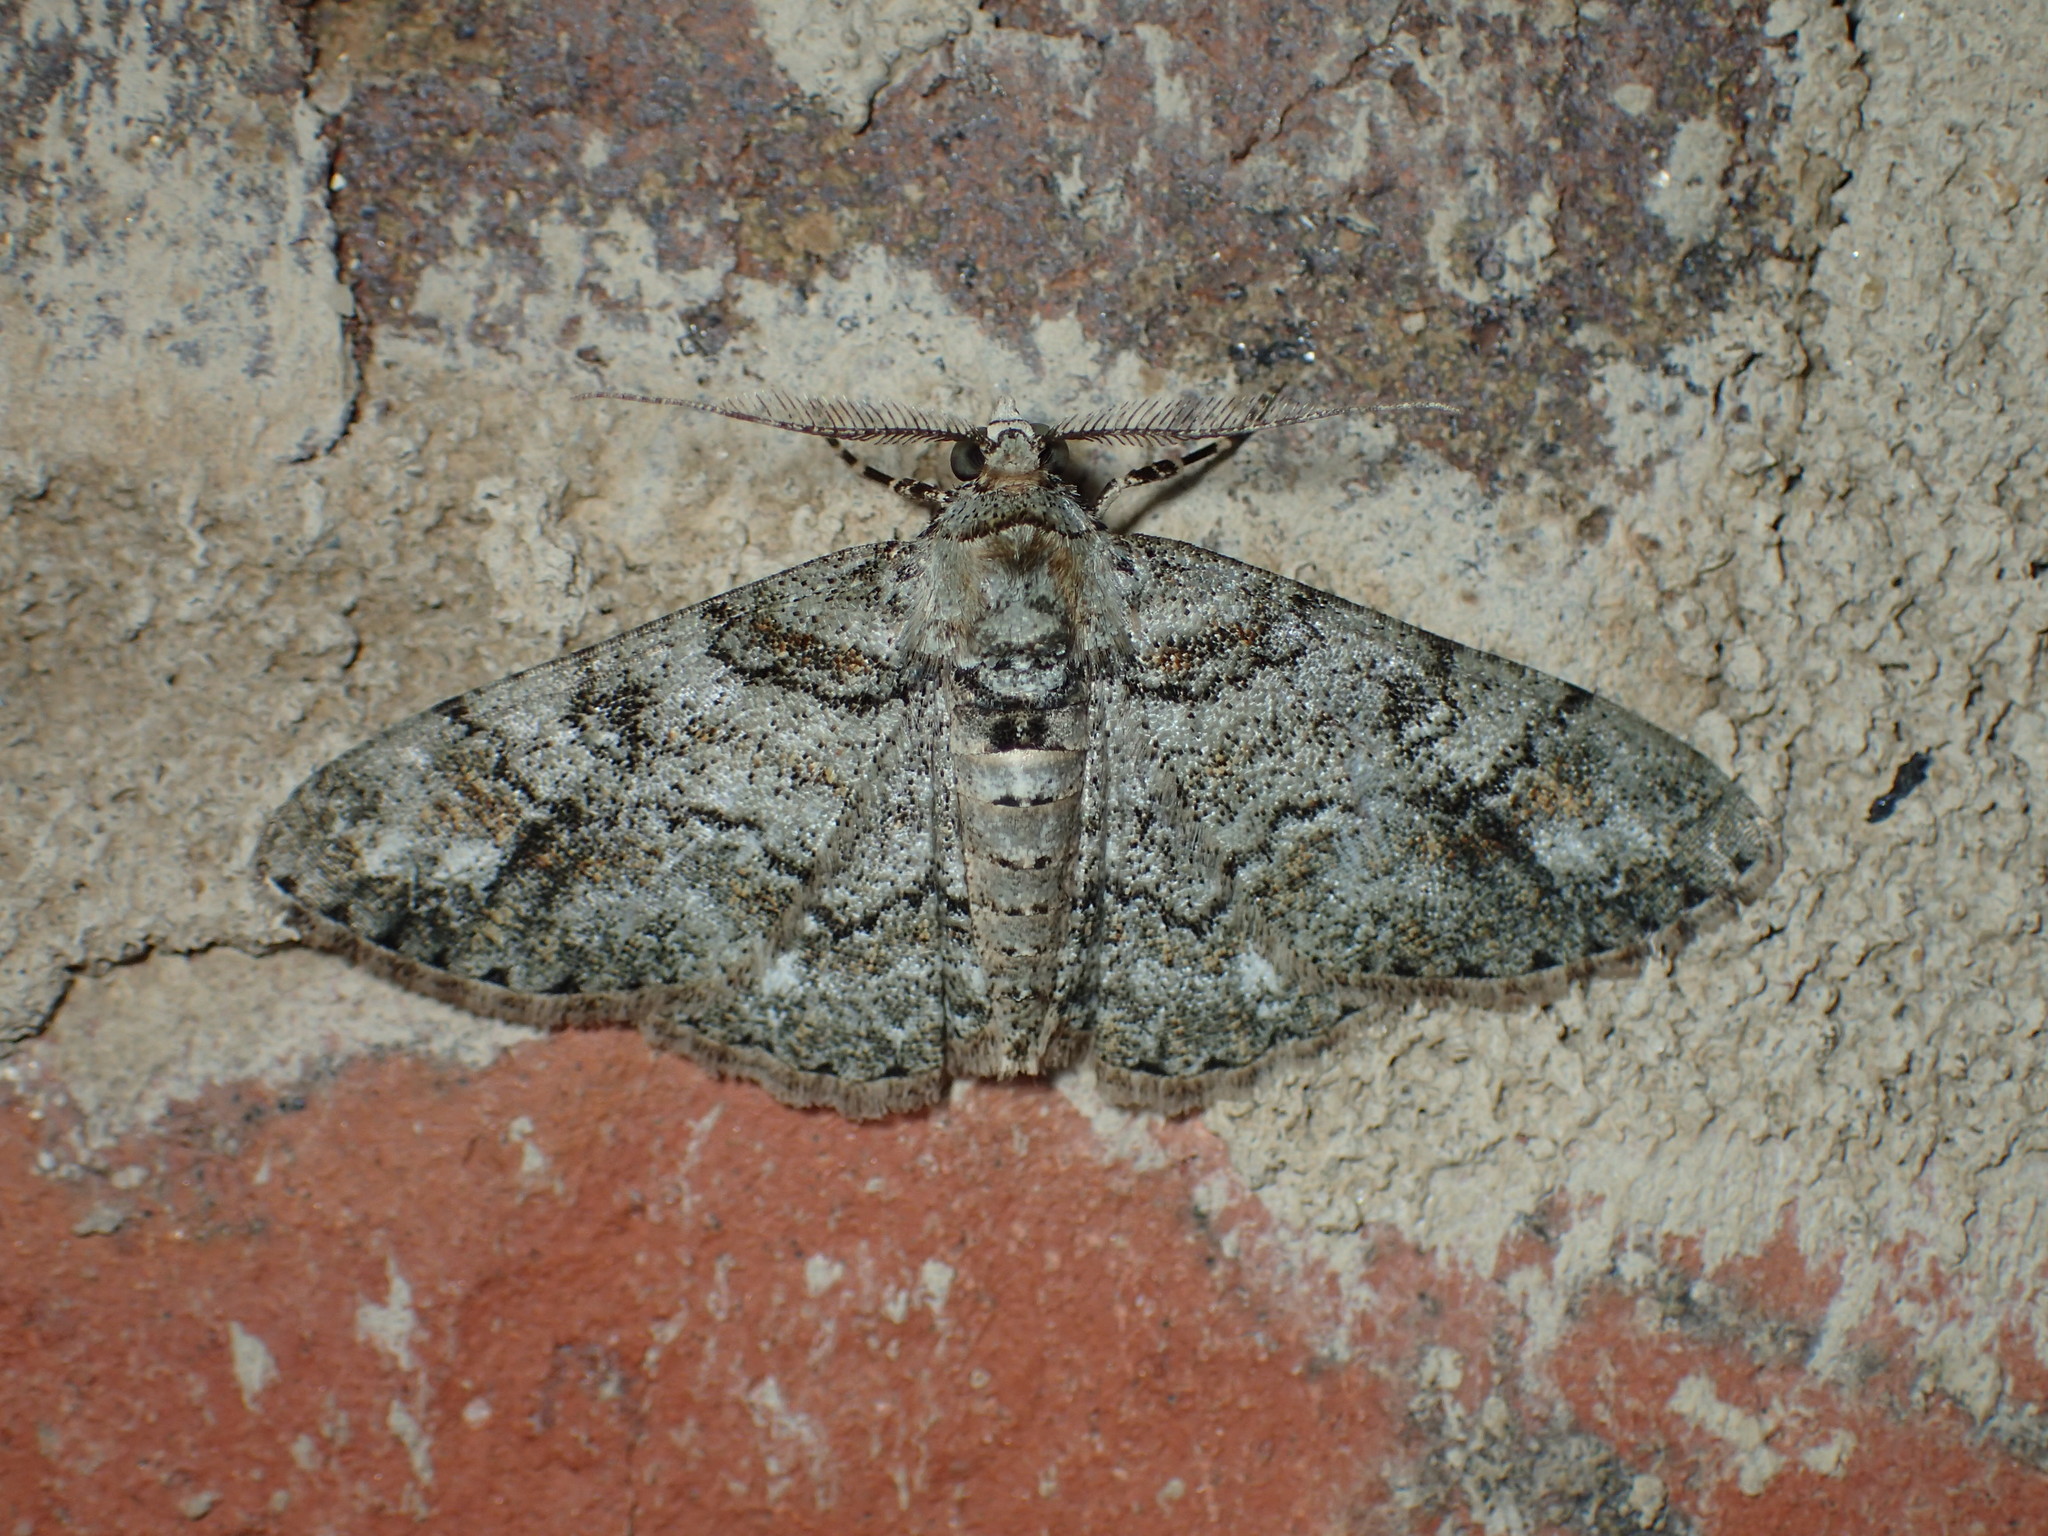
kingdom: Animalia
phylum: Arthropoda
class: Insecta
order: Lepidoptera
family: Geometridae
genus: Cleora
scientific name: Cleora sublunaria
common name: Double-lined gray
